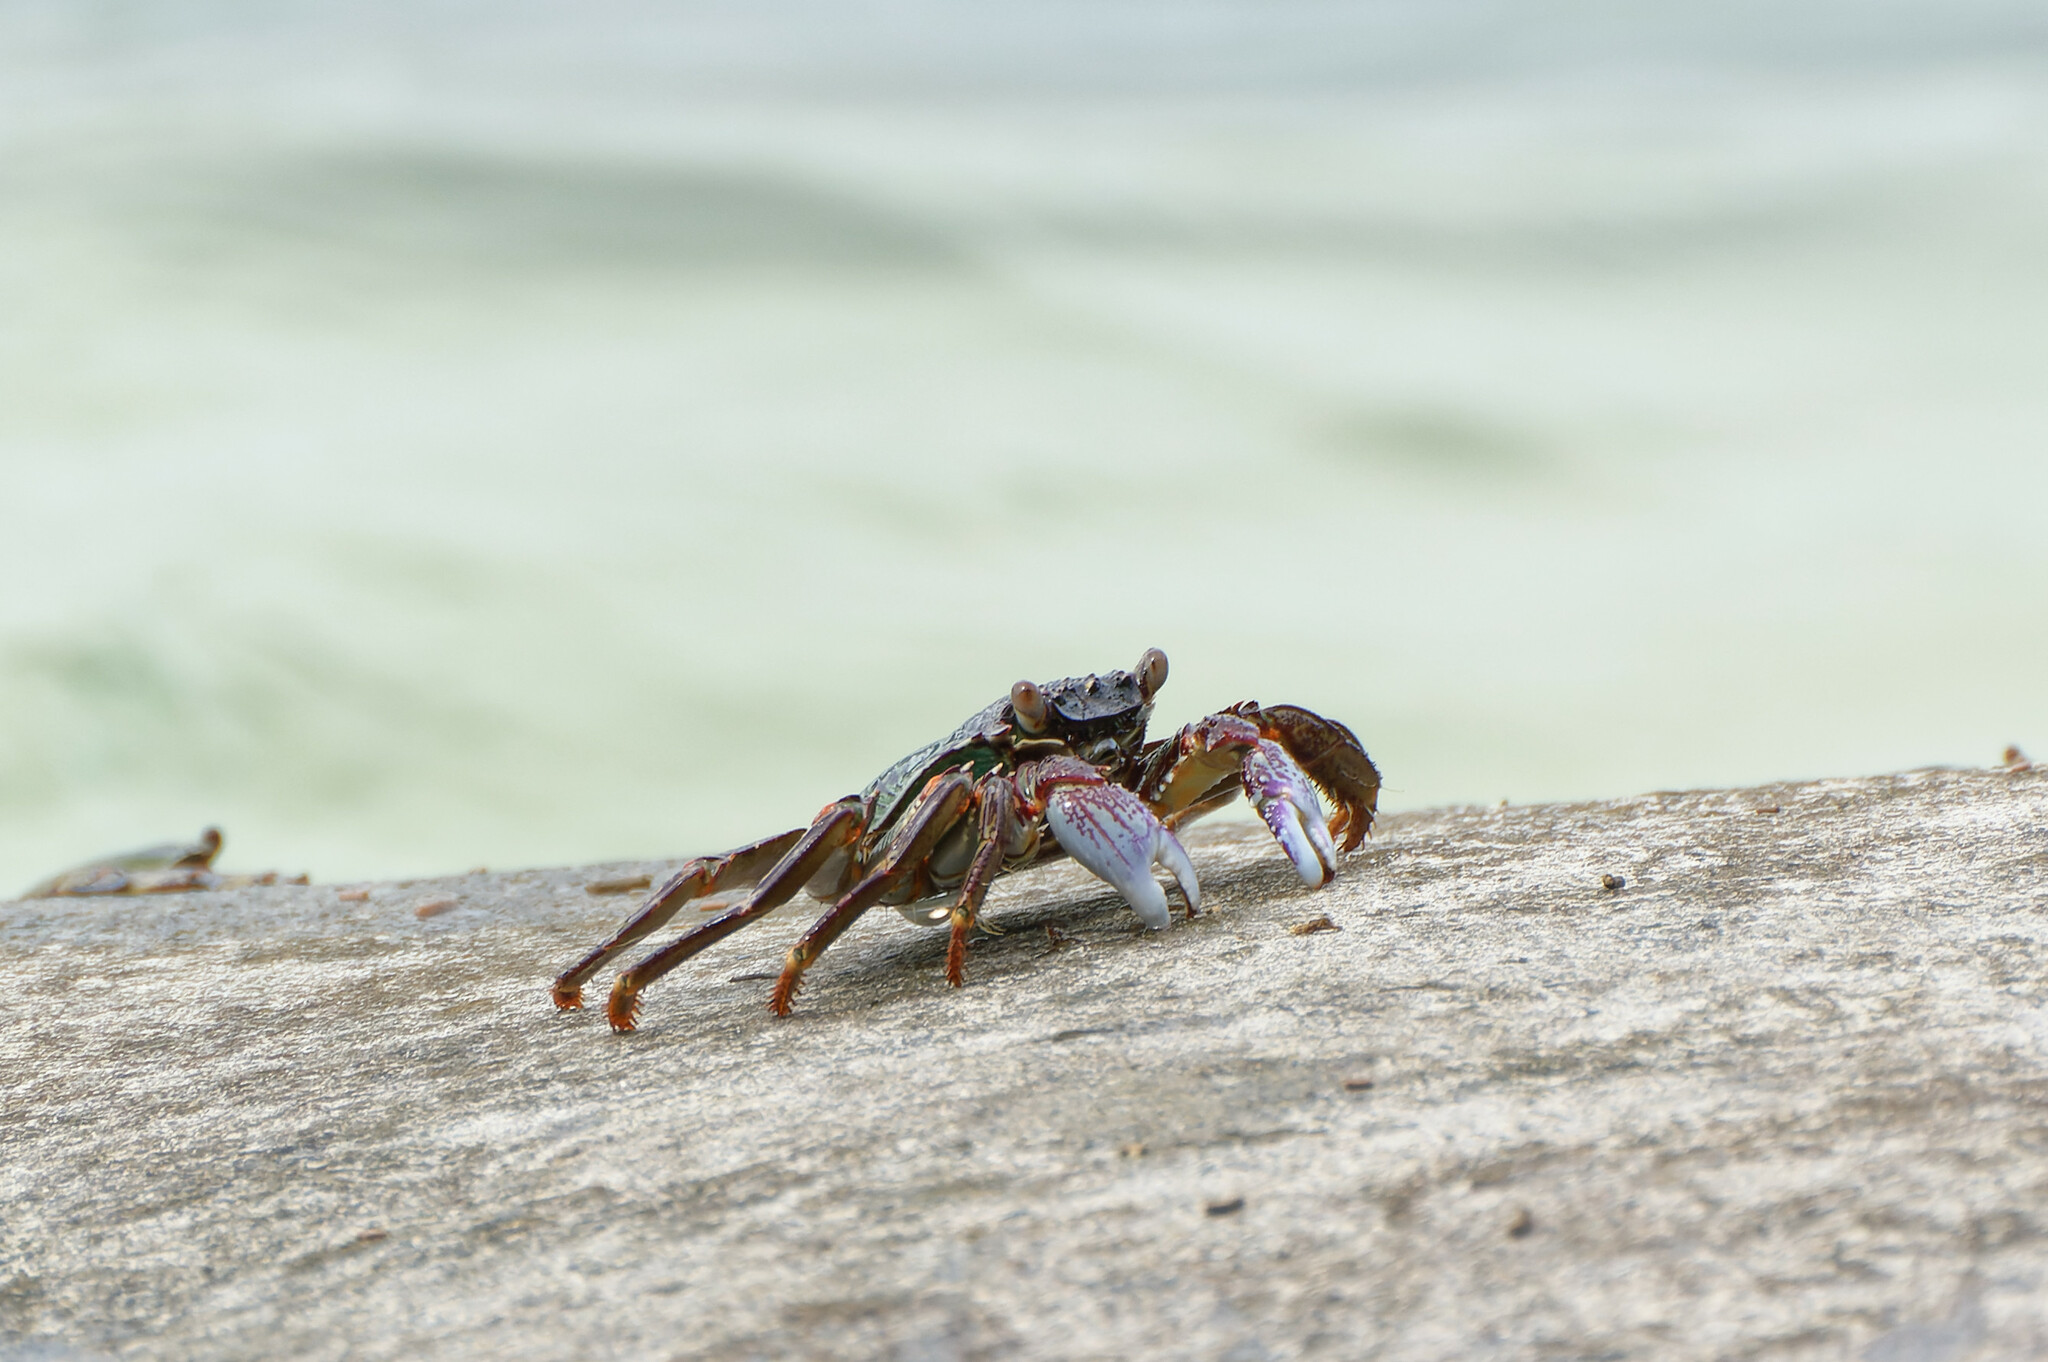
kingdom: Animalia
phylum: Arthropoda
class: Malacostraca
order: Decapoda
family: Grapsidae
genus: Grapsus
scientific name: Grapsus albolineatus
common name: Mottled lightfoot crab
